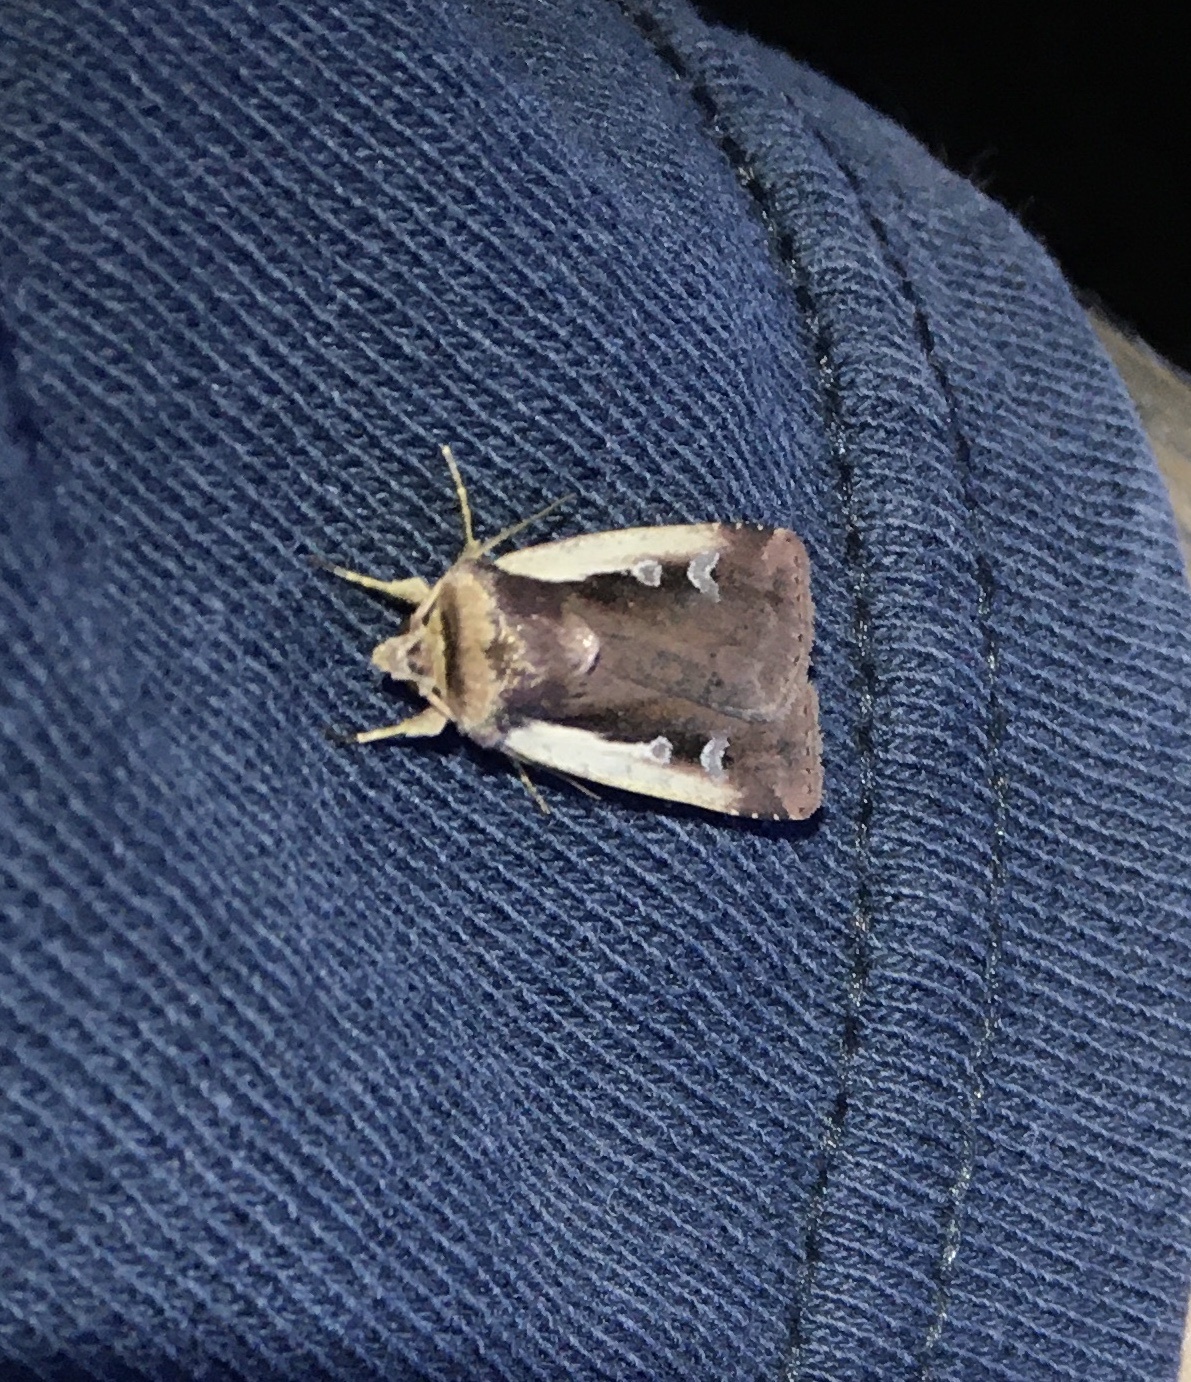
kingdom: Animalia
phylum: Arthropoda
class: Insecta
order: Lepidoptera
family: Noctuidae
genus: Ochropleura
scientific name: Ochropleura plecta
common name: Flame shoulder
